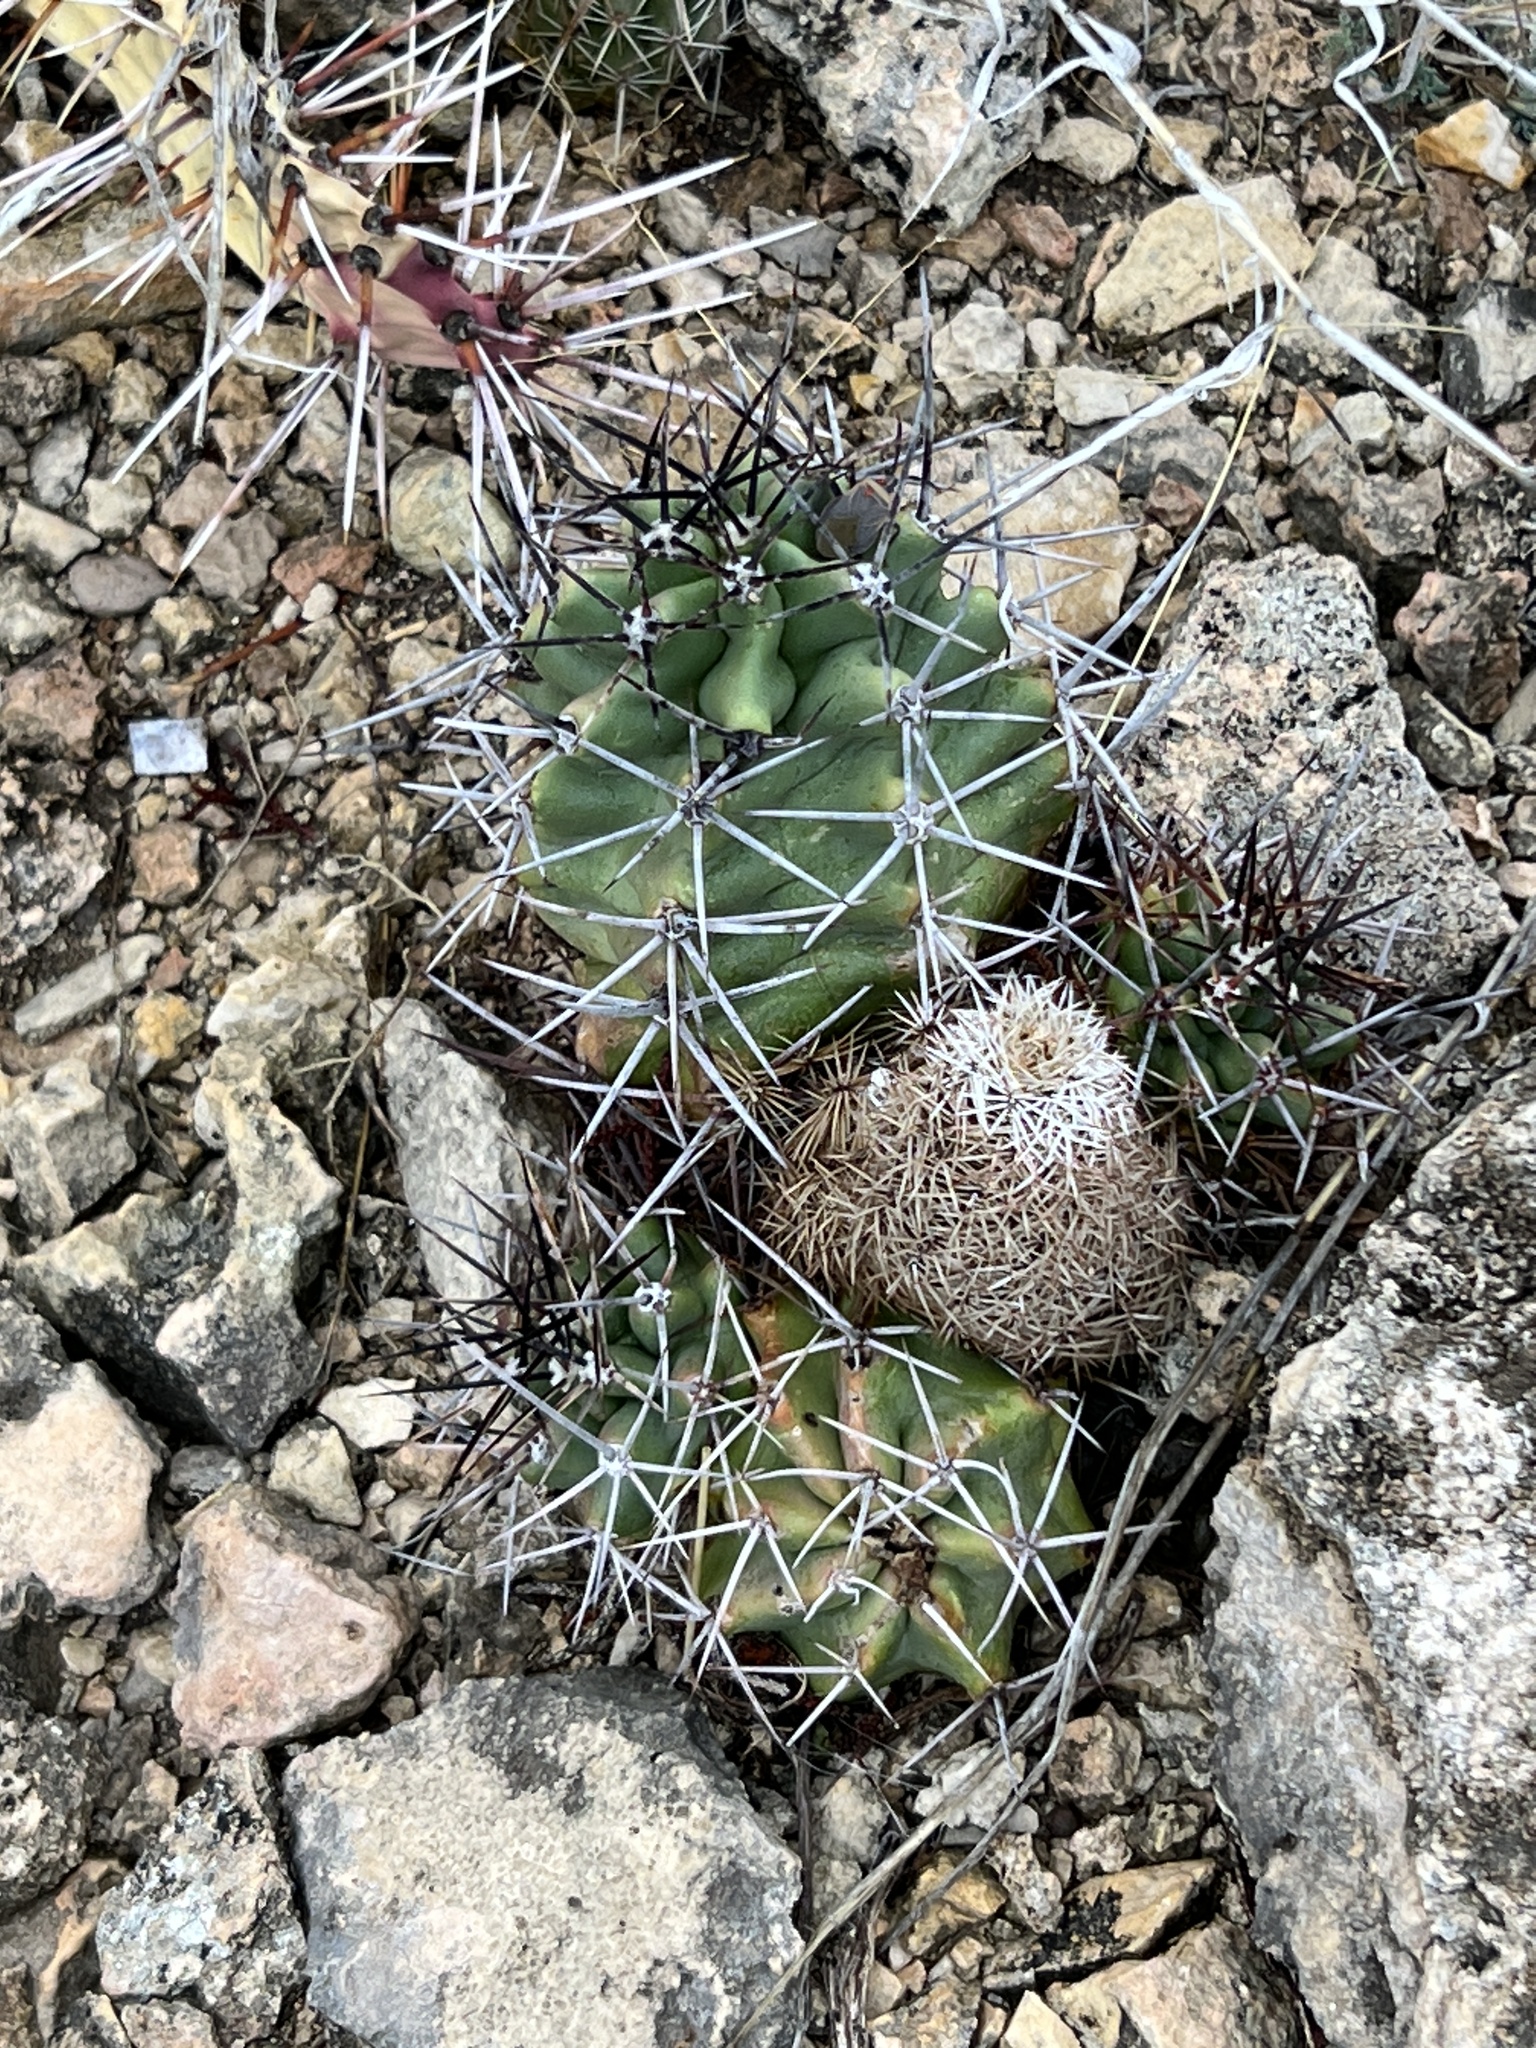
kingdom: Plantae
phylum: Tracheophyta
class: Magnoliopsida
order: Caryophyllales
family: Cactaceae
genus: Coryphantha
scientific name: Coryphantha echinus
